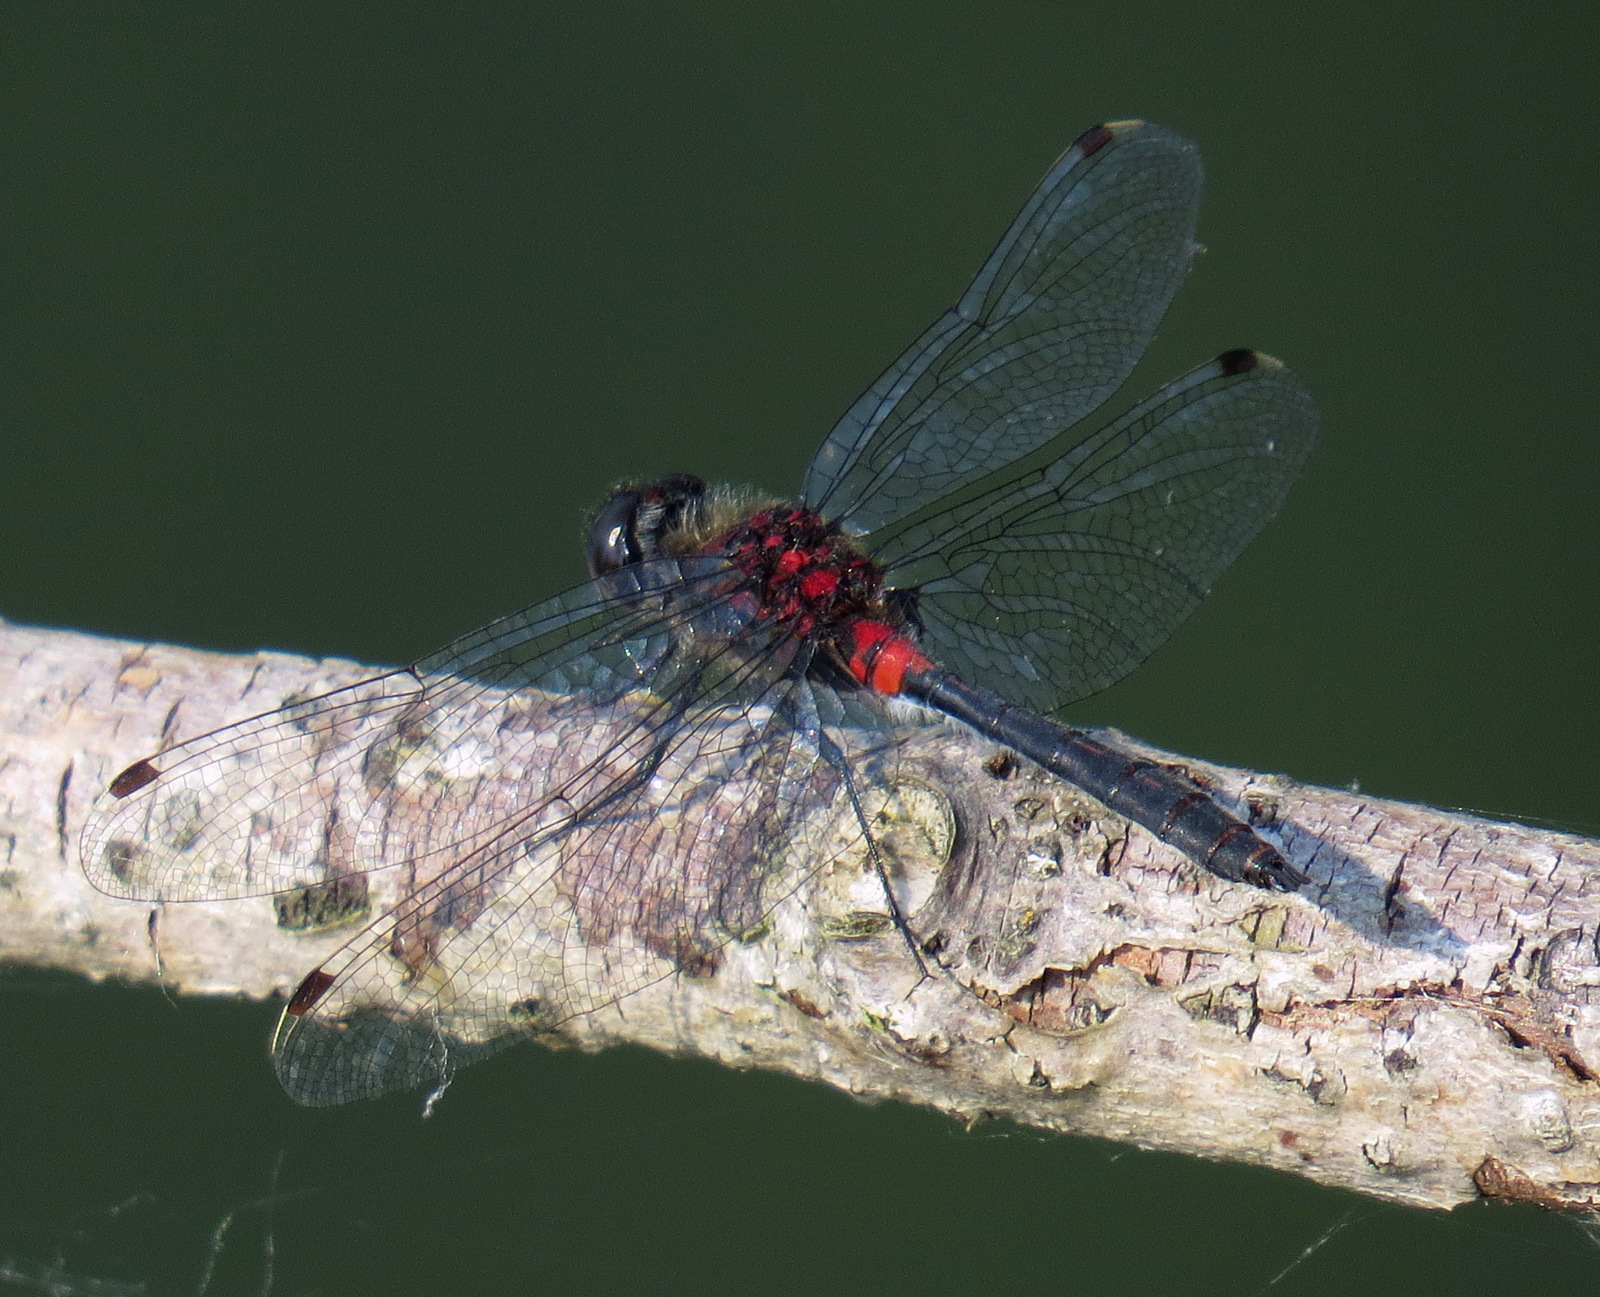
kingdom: Animalia
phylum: Arthropoda
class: Insecta
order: Odonata
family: Libellulidae
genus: Leucorrhinia
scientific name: Leucorrhinia proxima
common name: Belted whiteface
